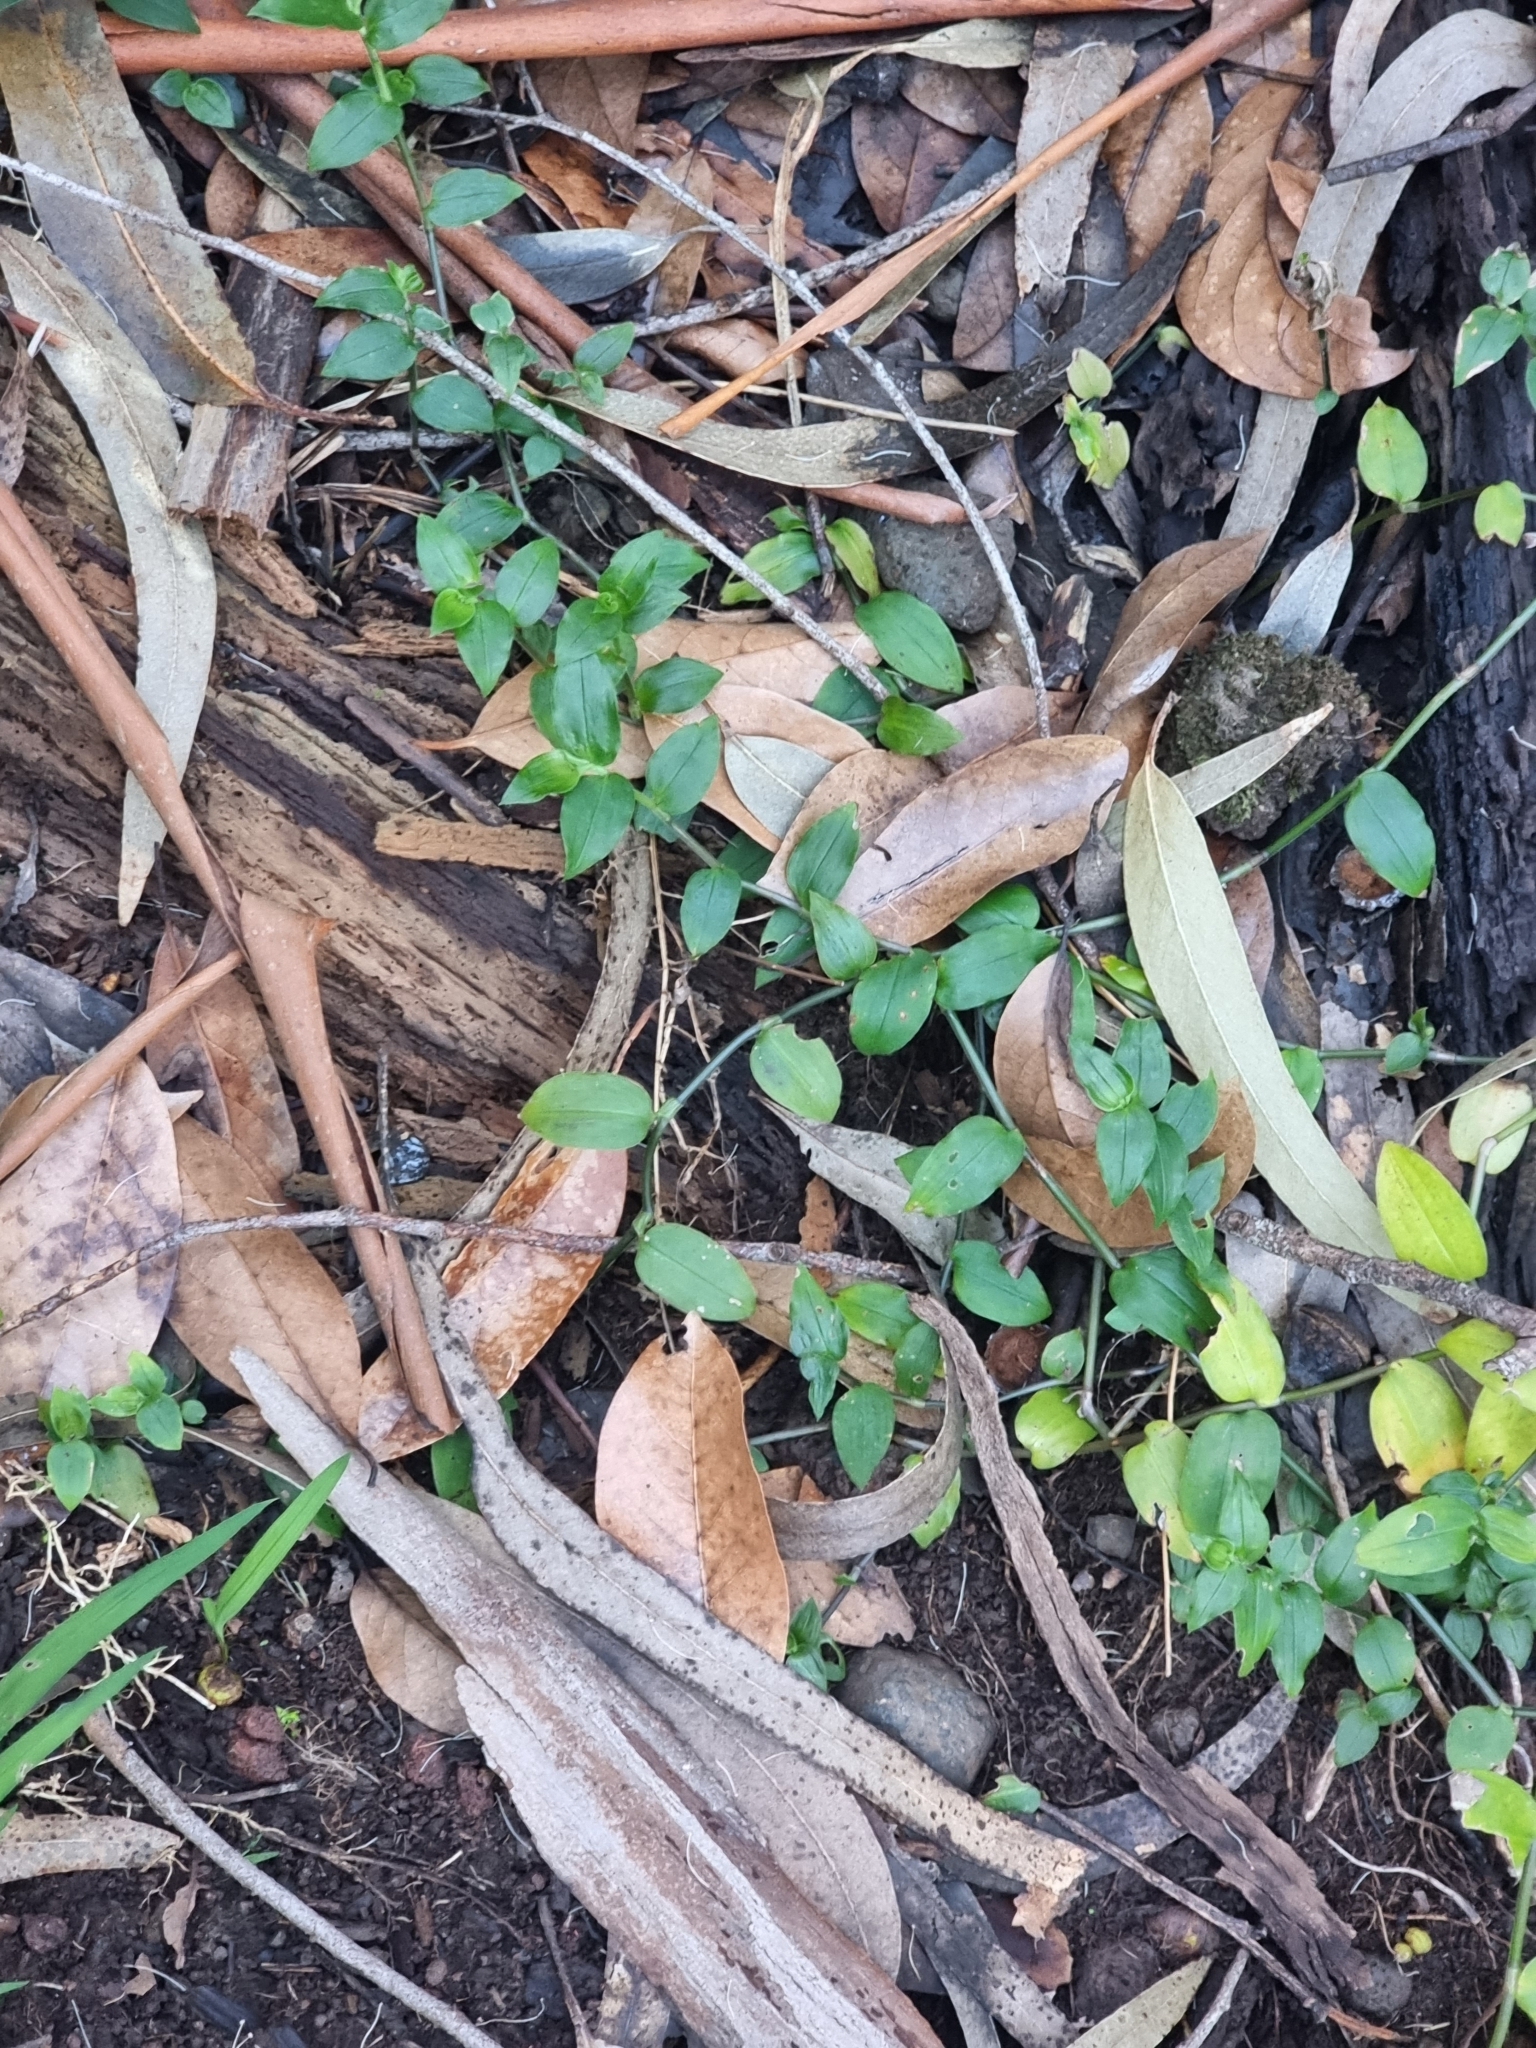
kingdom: Plantae
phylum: Tracheophyta
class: Liliopsida
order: Commelinales
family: Commelinaceae
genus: Tradescantia
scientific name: Tradescantia fluminensis
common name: Wandering-jew
